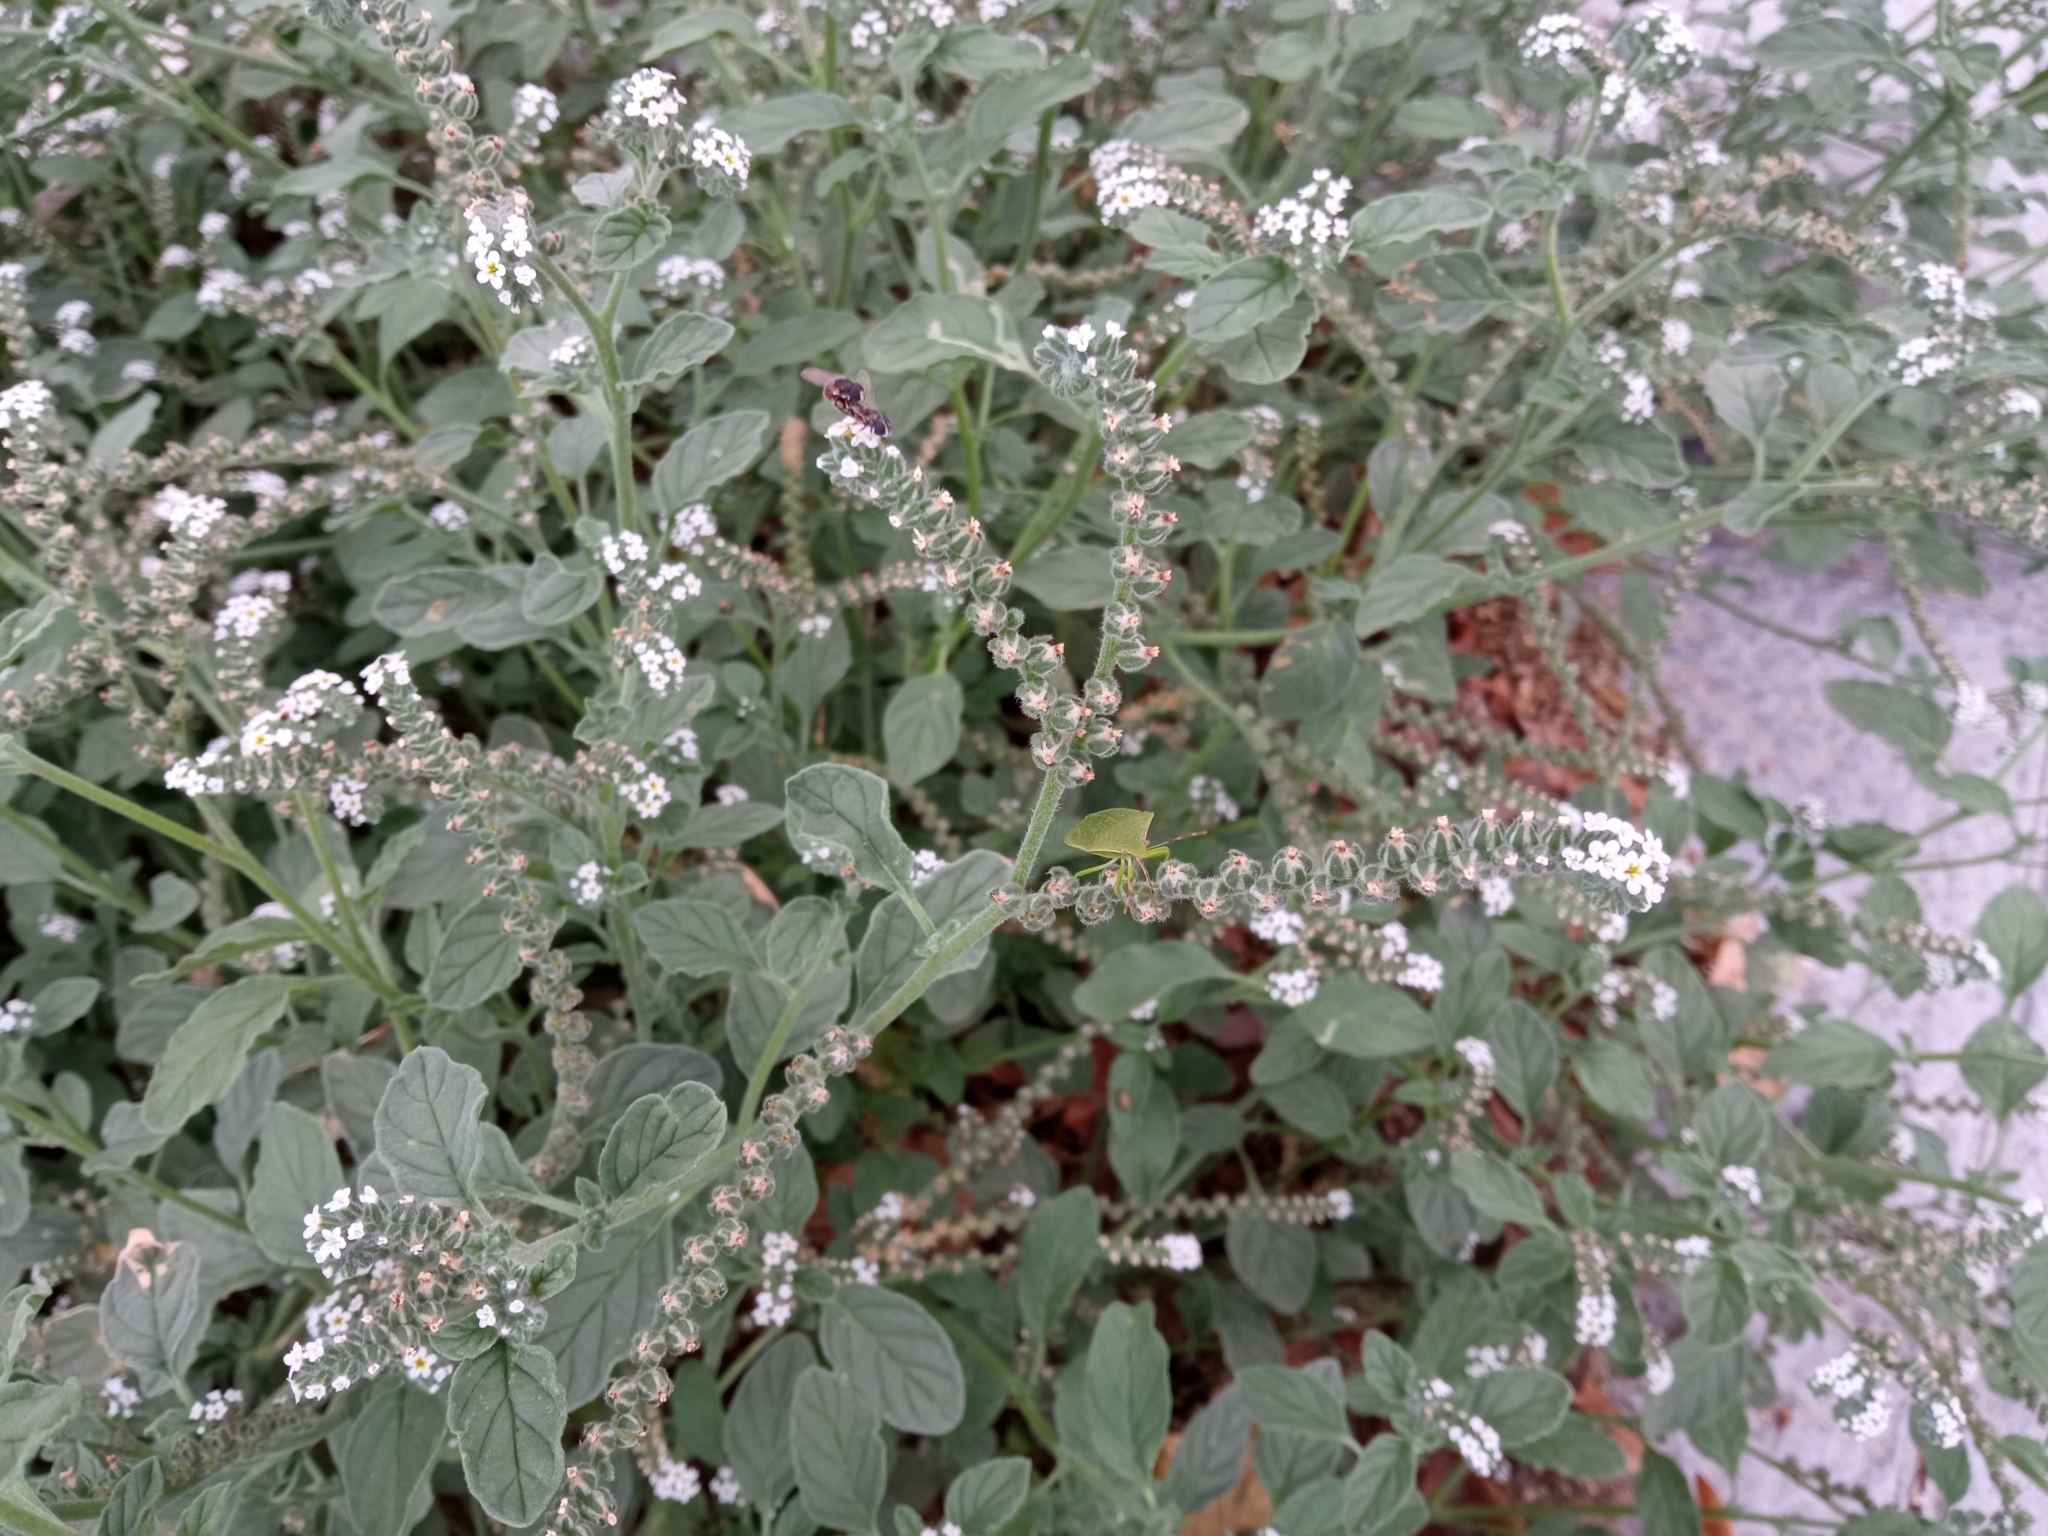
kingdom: Plantae
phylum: Tracheophyta
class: Magnoliopsida
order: Boraginales
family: Heliotropiaceae
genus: Heliotropium
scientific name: Heliotropium europaeum
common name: European heliotrope
